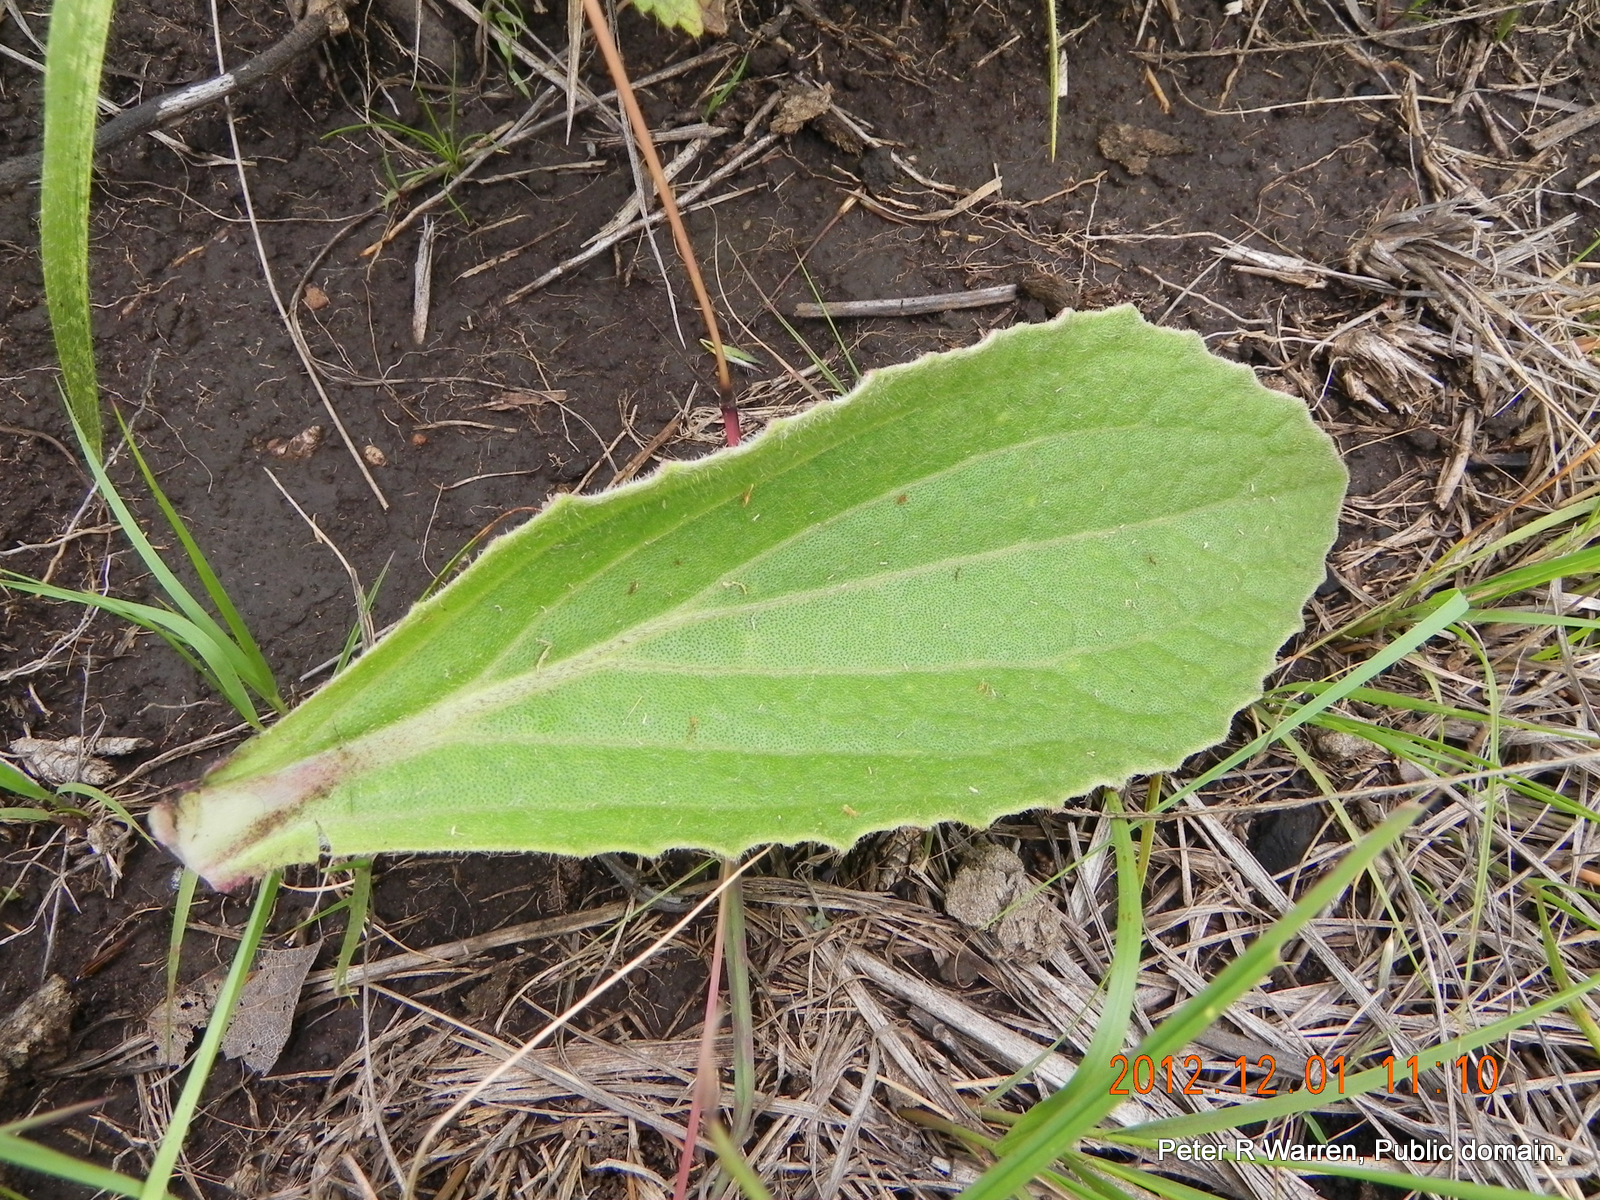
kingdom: Plantae
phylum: Tracheophyta
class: Magnoliopsida
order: Asterales
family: Asteraceae
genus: Haplocarpha
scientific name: Haplocarpha scaposa
